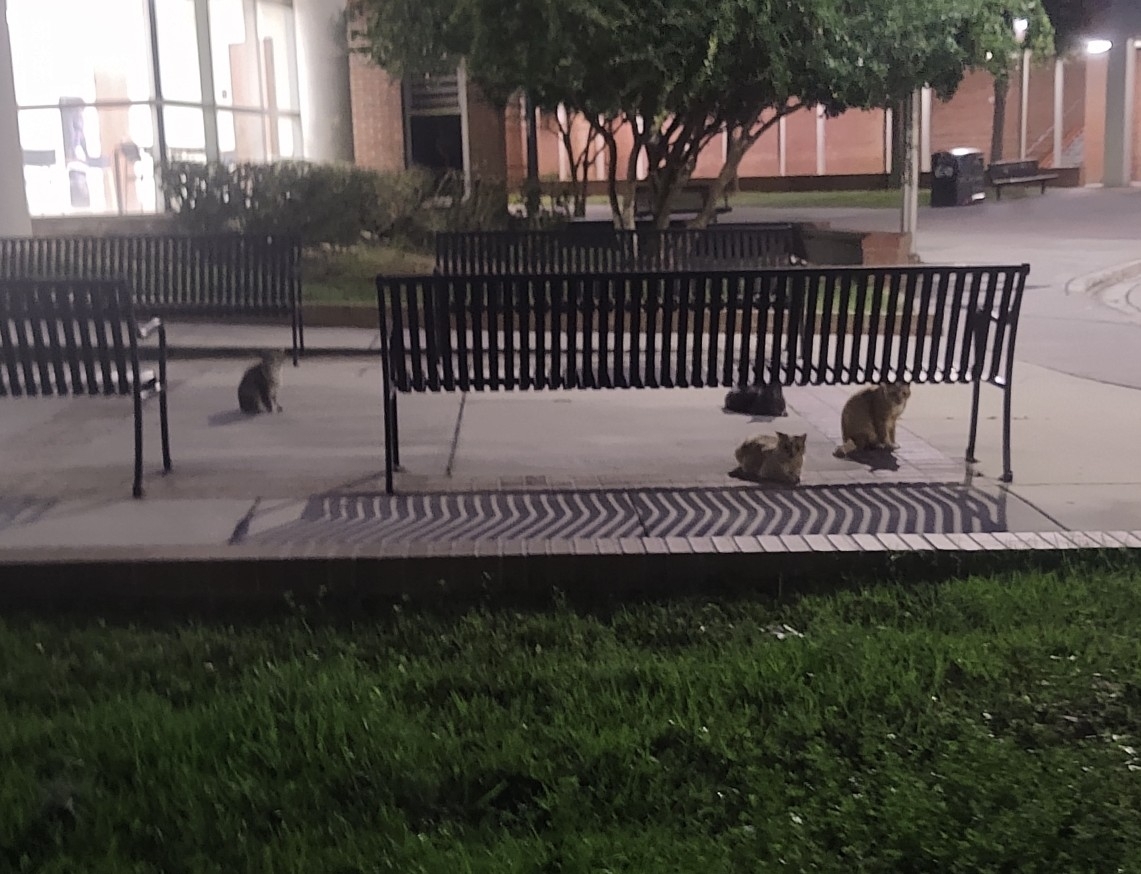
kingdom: Animalia
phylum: Chordata
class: Mammalia
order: Carnivora
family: Felidae
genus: Felis
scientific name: Felis catus
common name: Domestic cat
